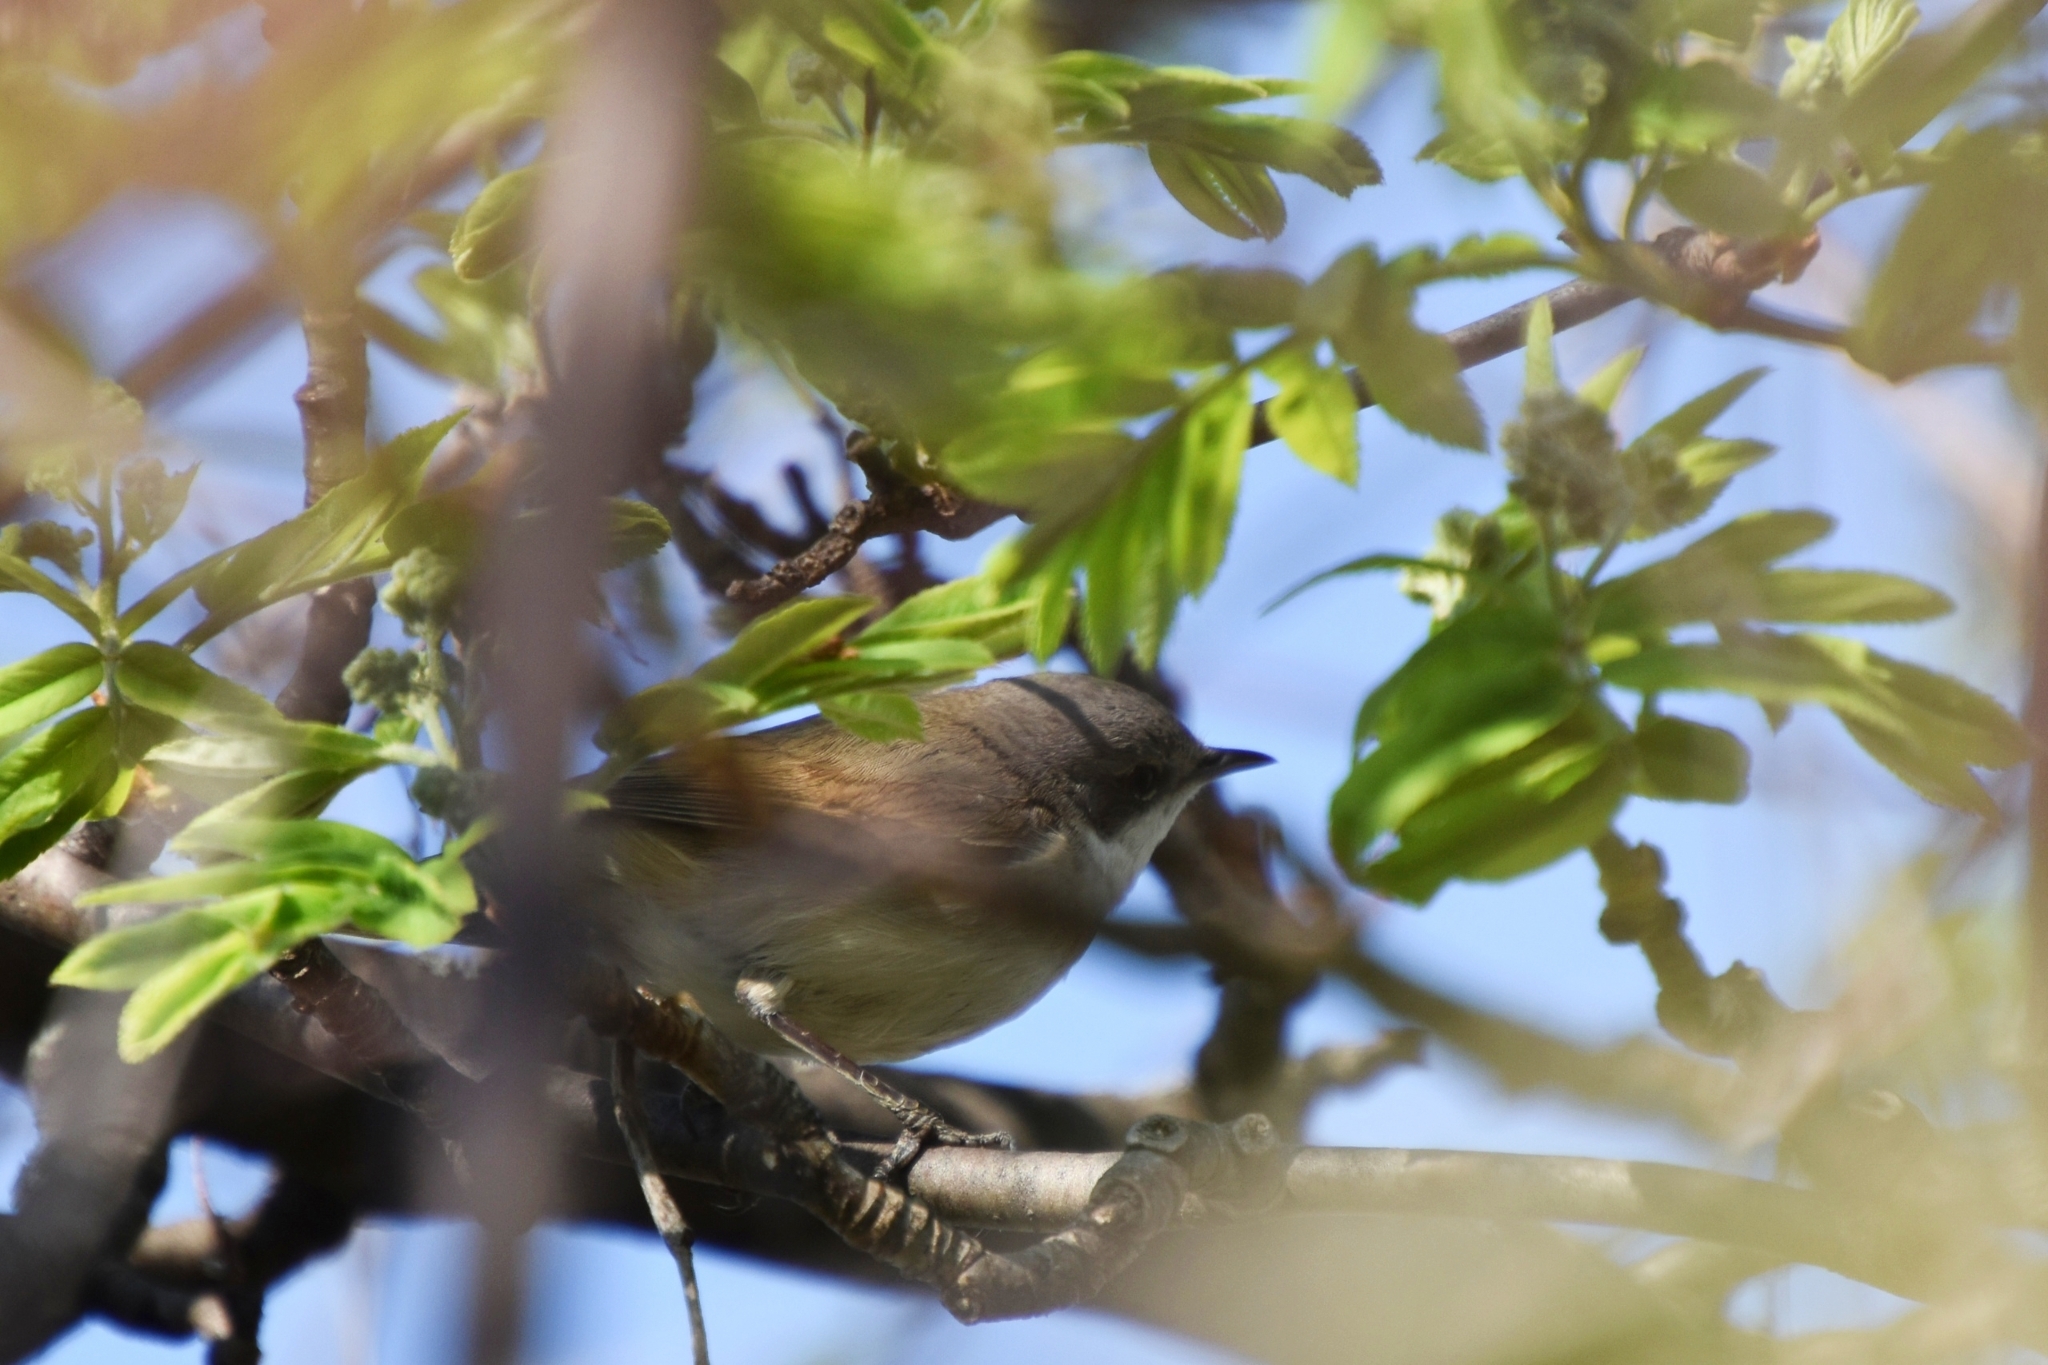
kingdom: Animalia
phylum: Chordata
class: Aves
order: Passeriformes
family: Sylviidae
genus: Sylvia
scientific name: Sylvia curruca
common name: Lesser whitethroat
